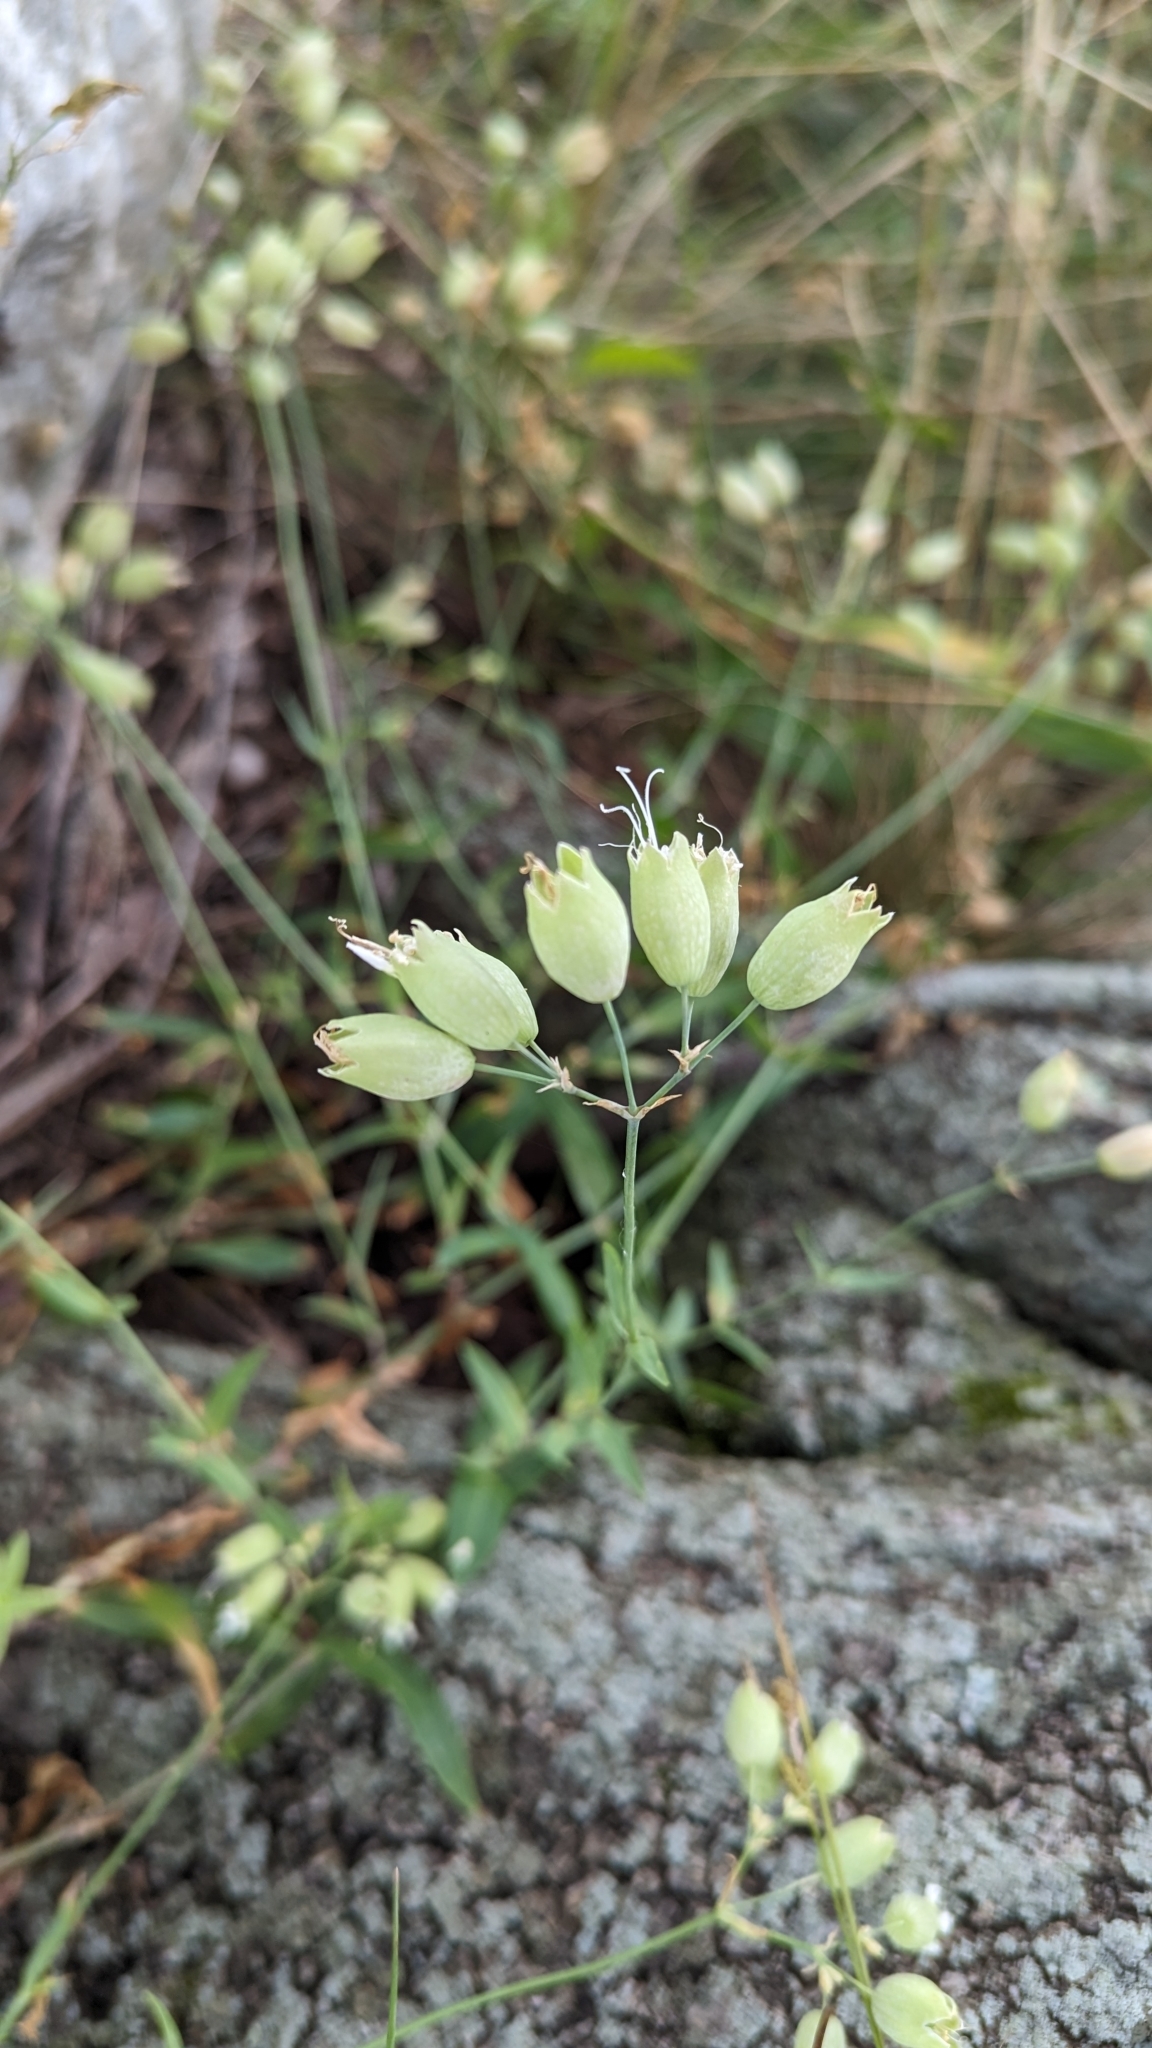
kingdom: Plantae
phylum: Tracheophyta
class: Magnoliopsida
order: Caryophyllales
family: Caryophyllaceae
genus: Silene
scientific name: Silene vulgaris
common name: Bladder campion
